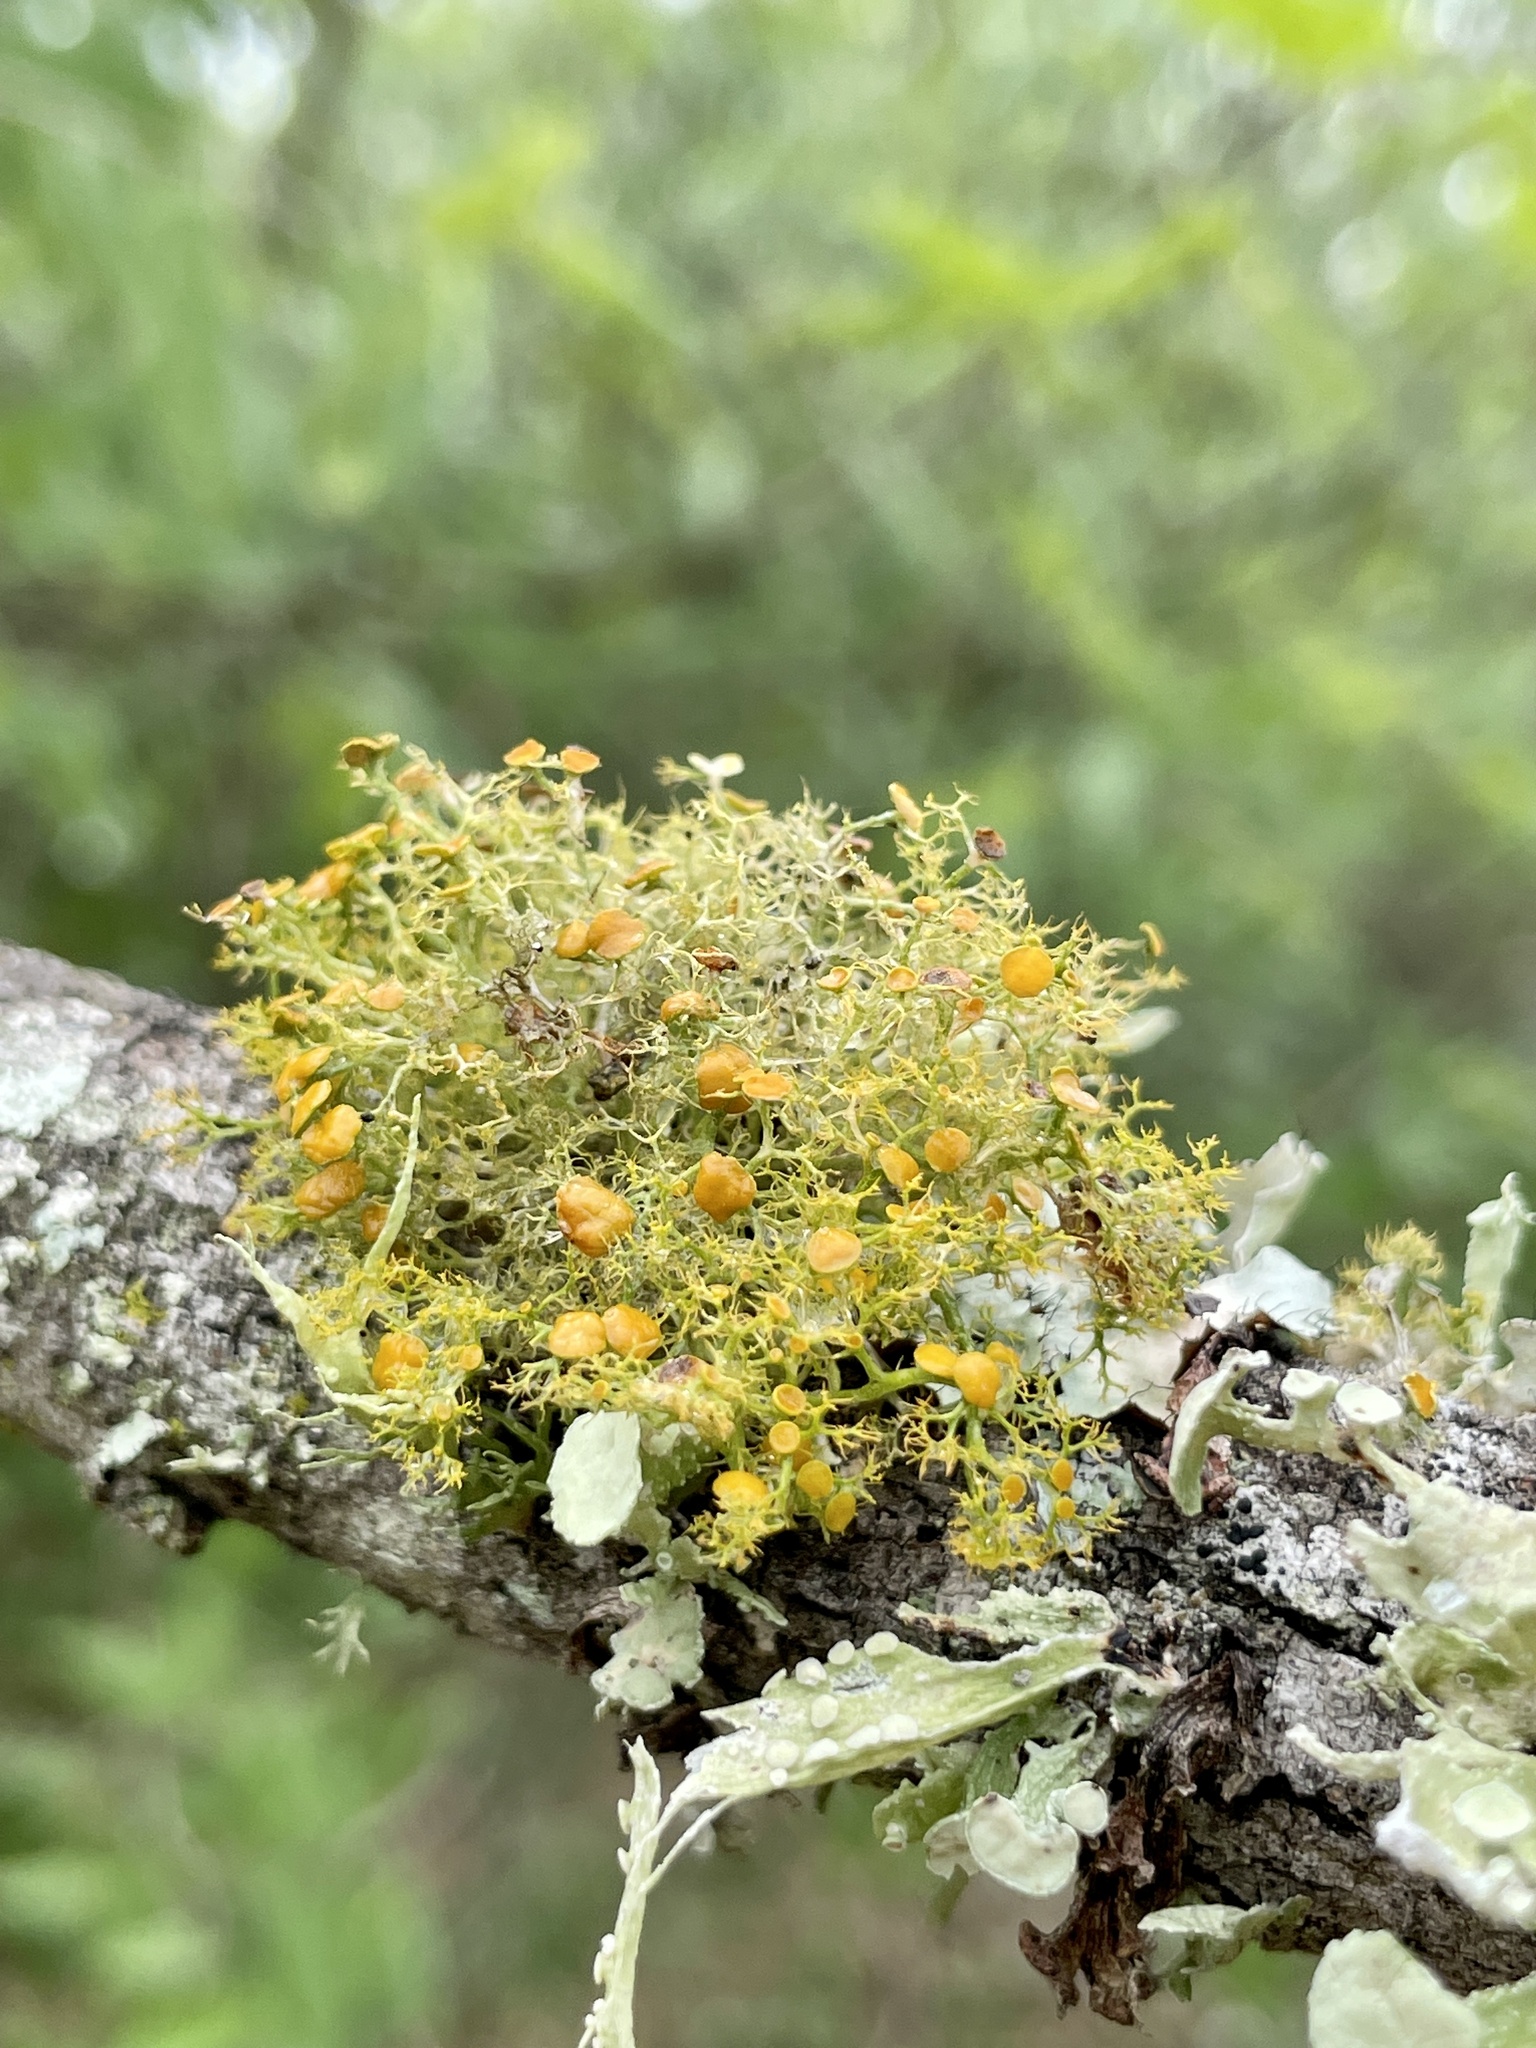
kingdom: Fungi
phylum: Ascomycota
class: Lecanoromycetes
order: Teloschistales
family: Teloschistaceae
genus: Teloschistes
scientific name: Teloschistes exilis
